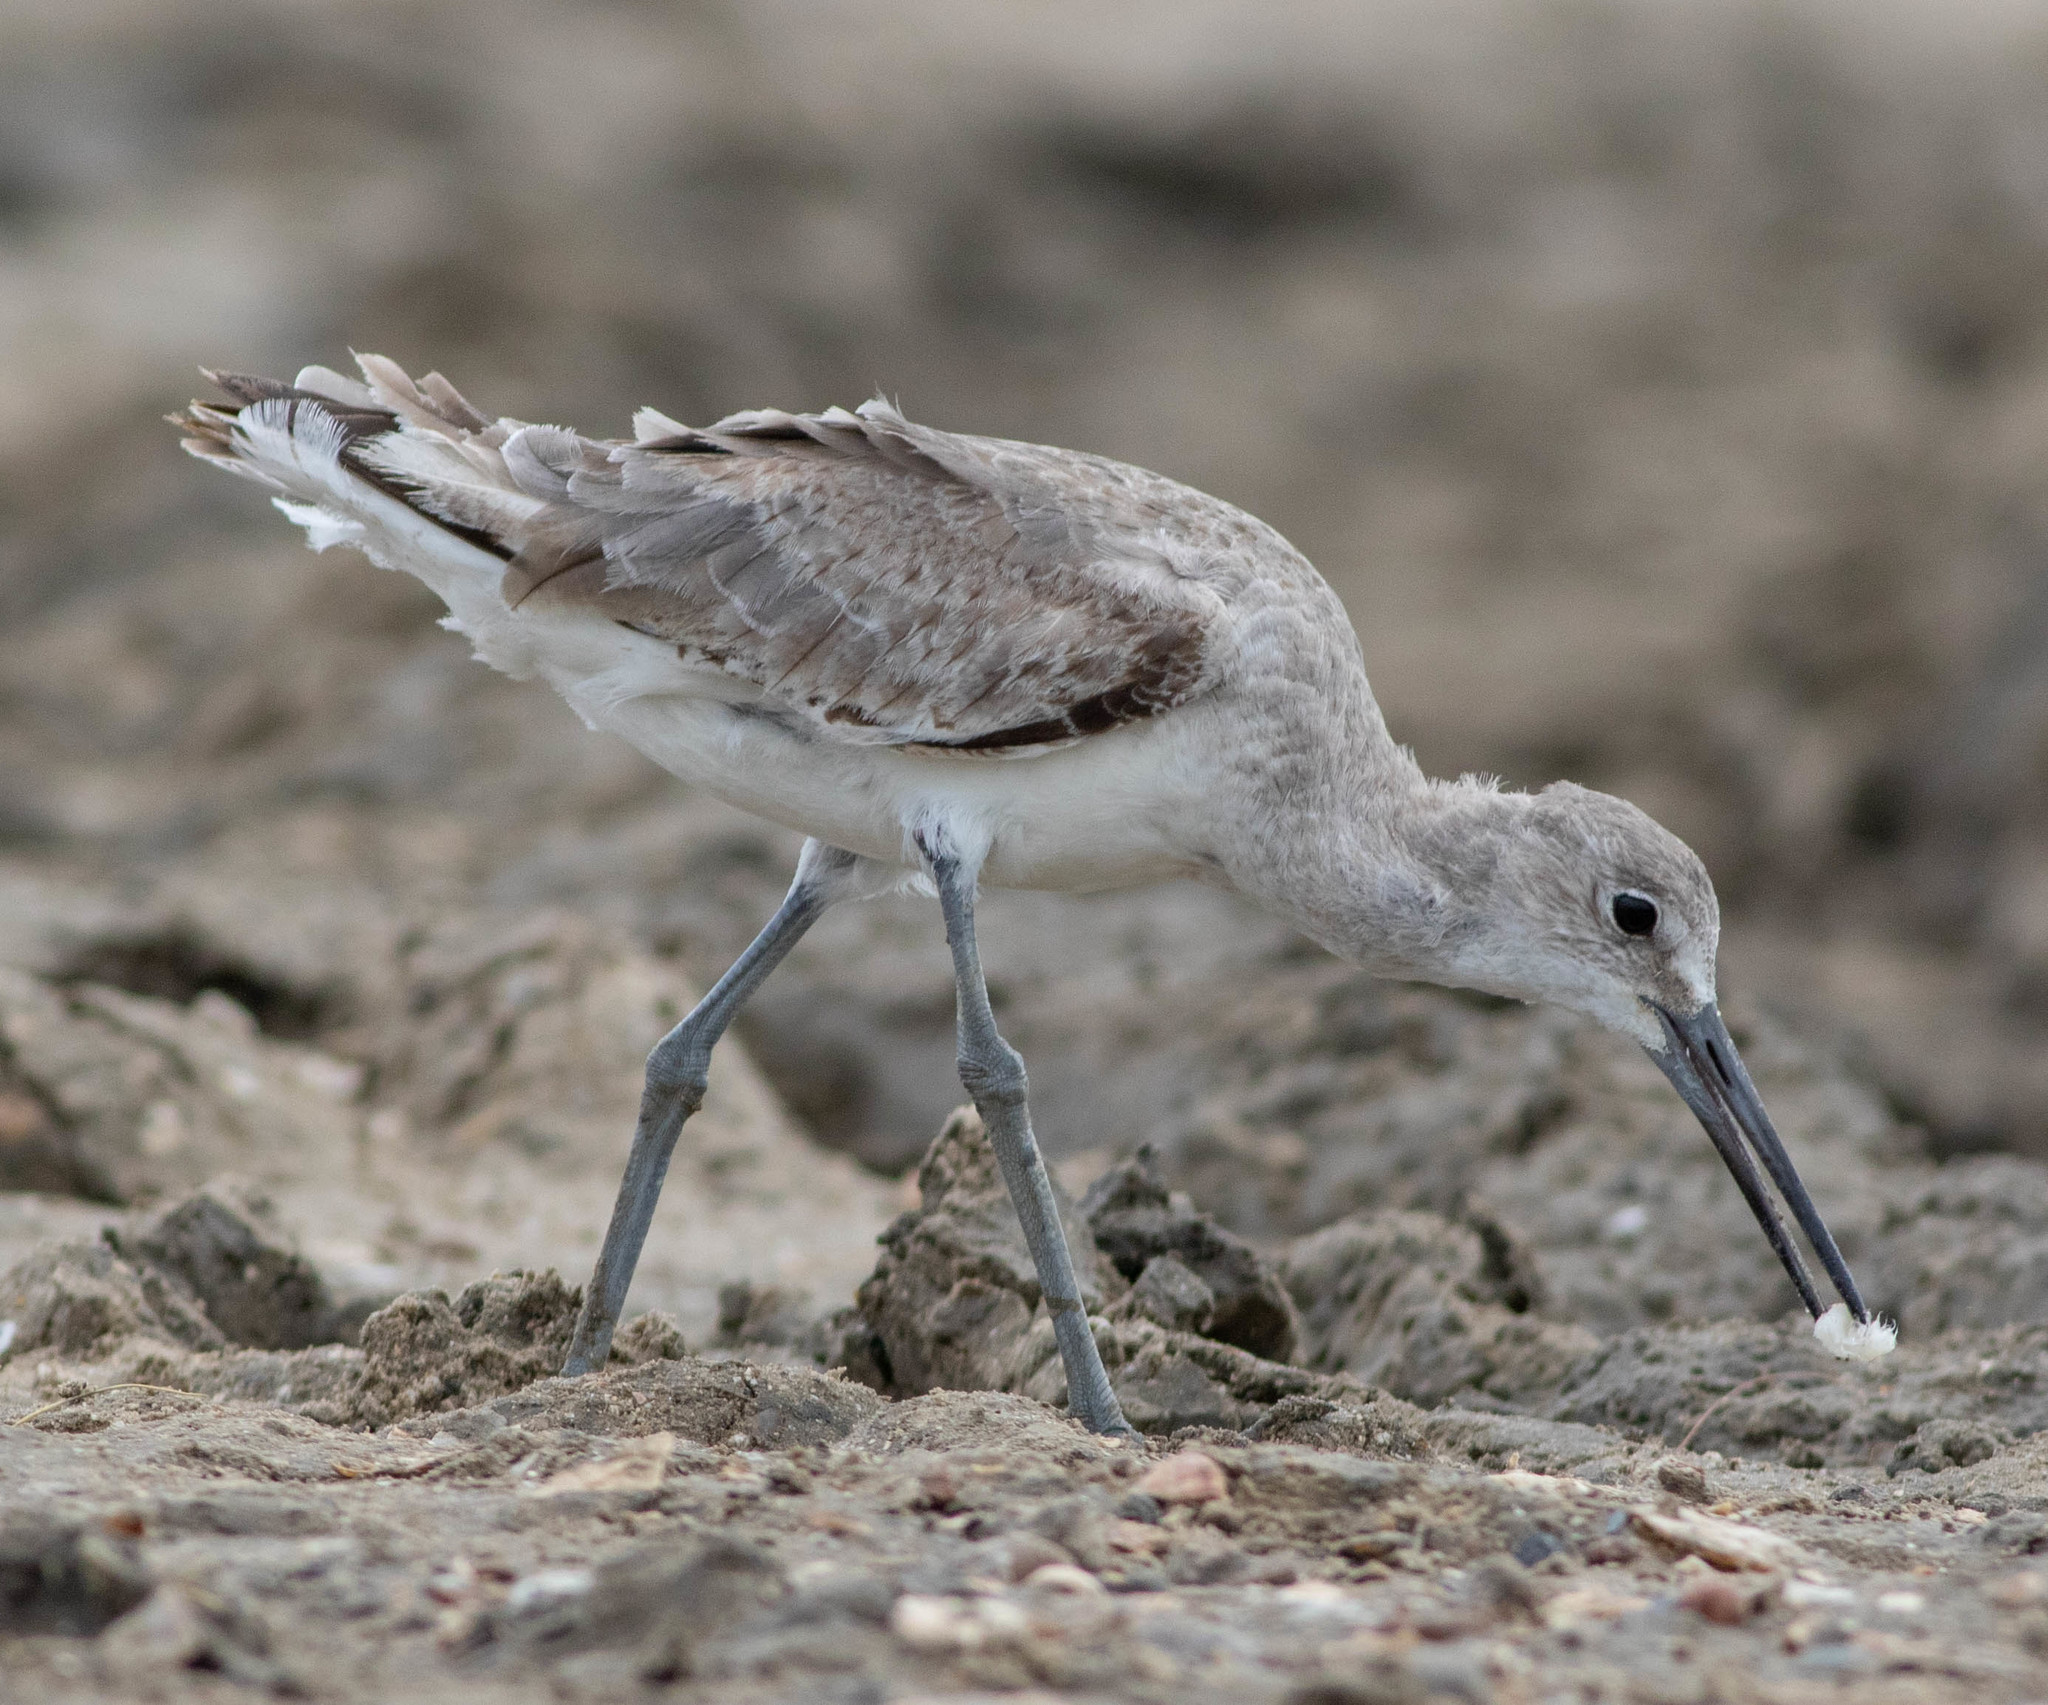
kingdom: Animalia
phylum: Chordata
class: Aves
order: Charadriiformes
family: Scolopacidae
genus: Tringa
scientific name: Tringa semipalmata
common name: Willet
